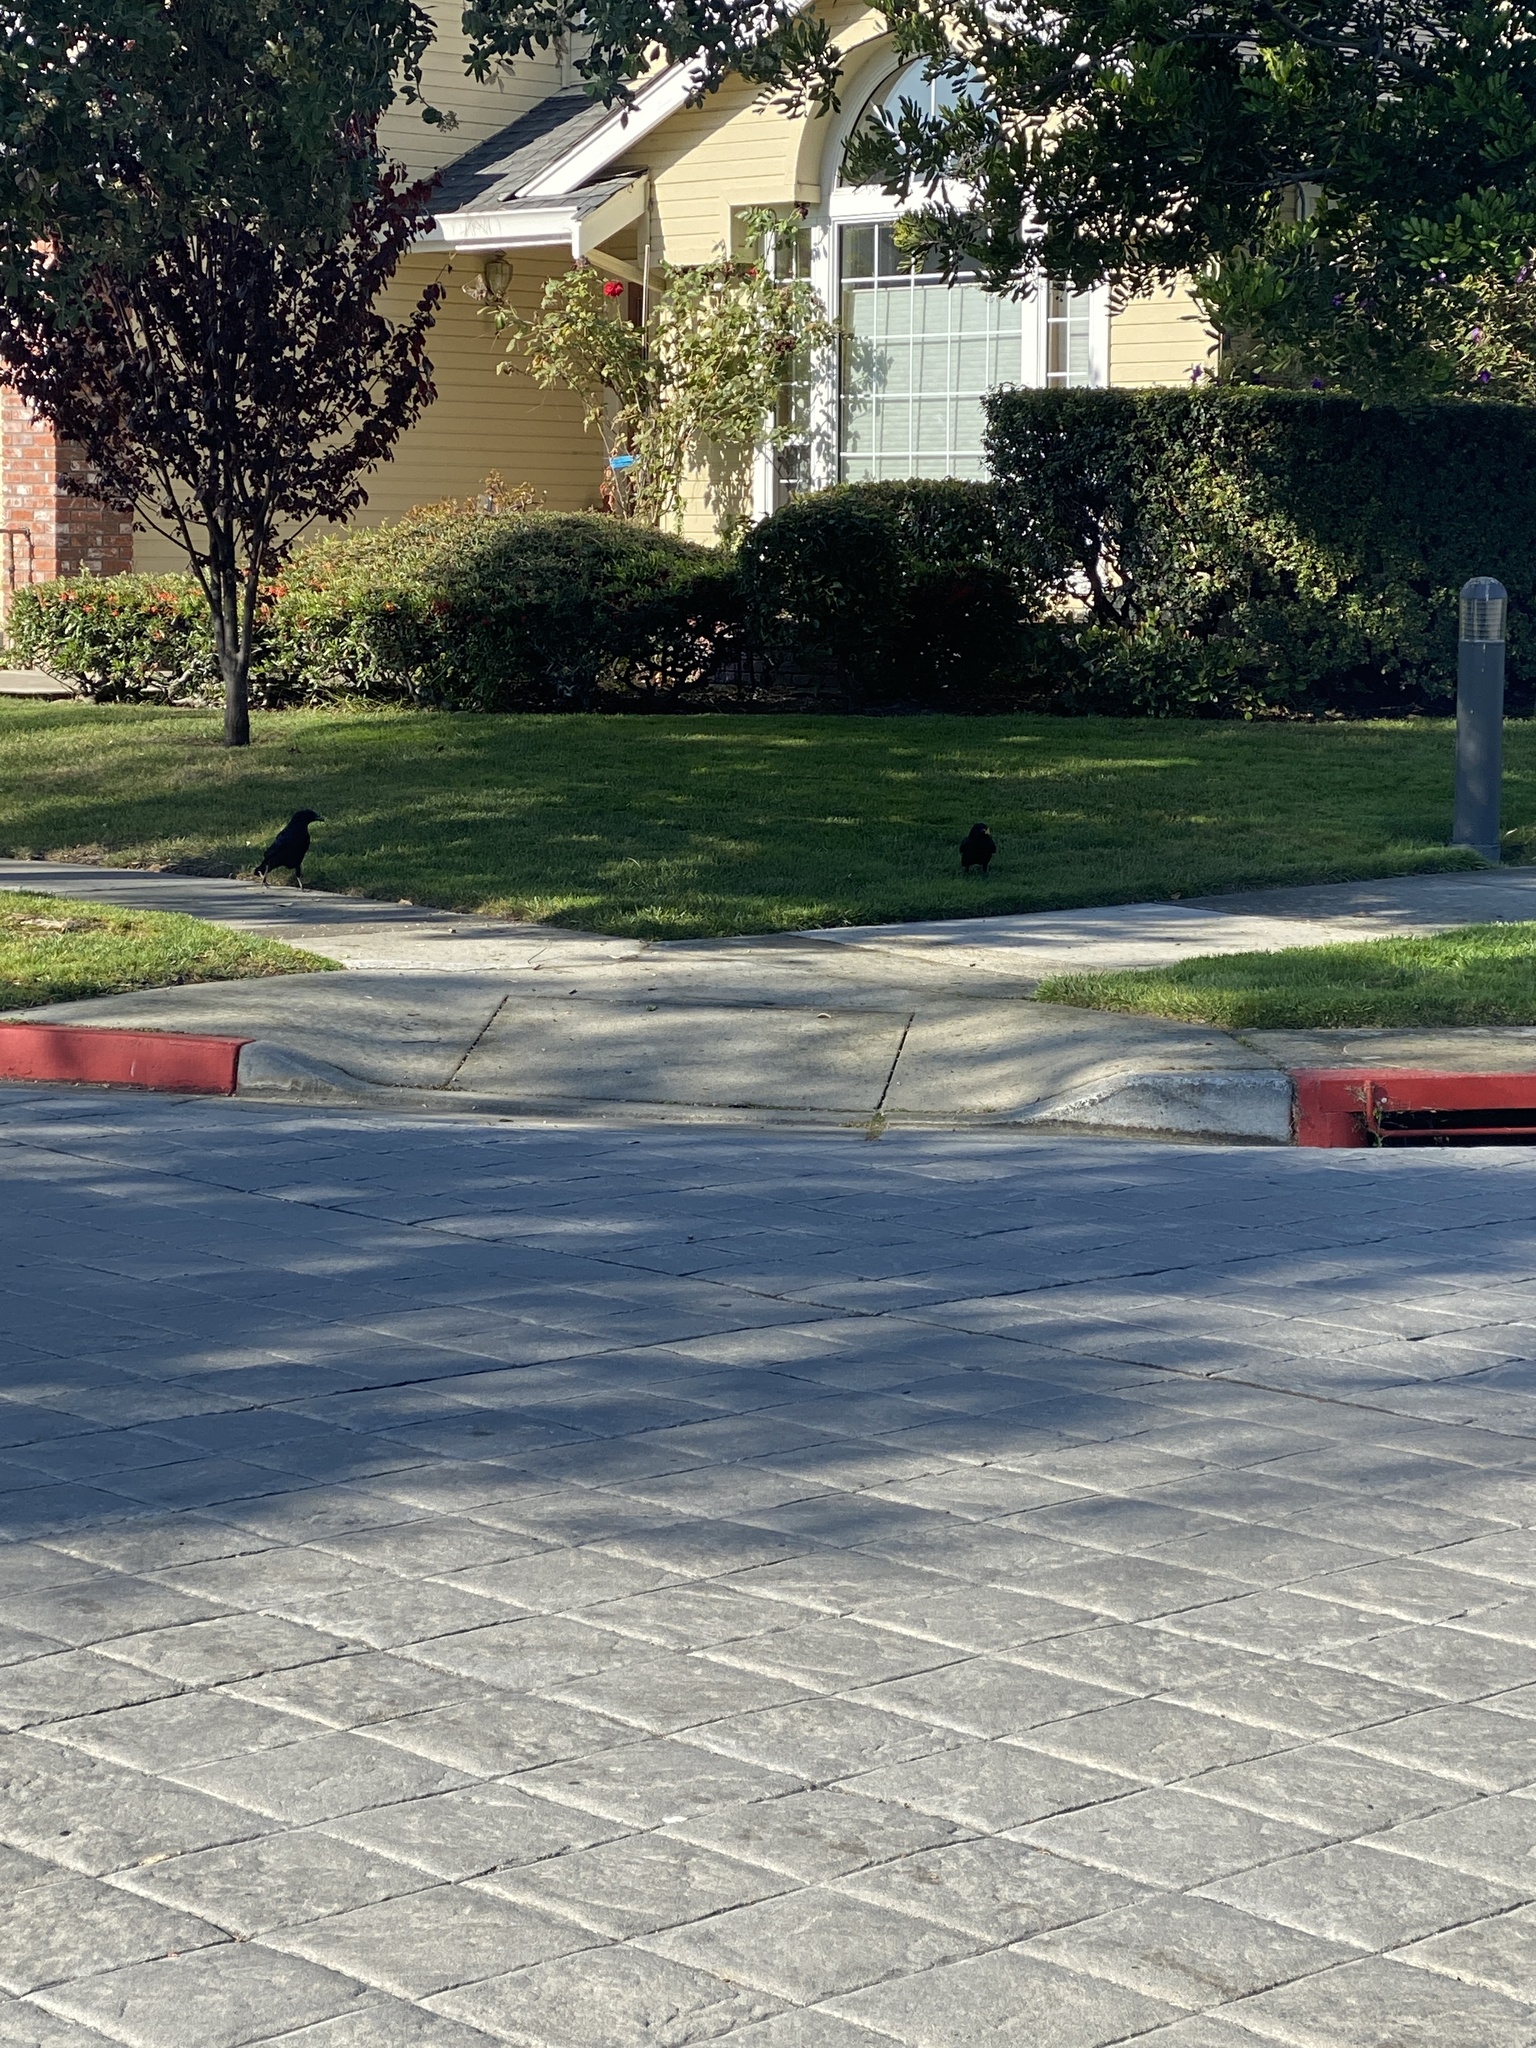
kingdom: Animalia
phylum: Chordata
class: Aves
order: Passeriformes
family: Corvidae
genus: Corvus
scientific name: Corvus brachyrhynchos
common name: American crow
